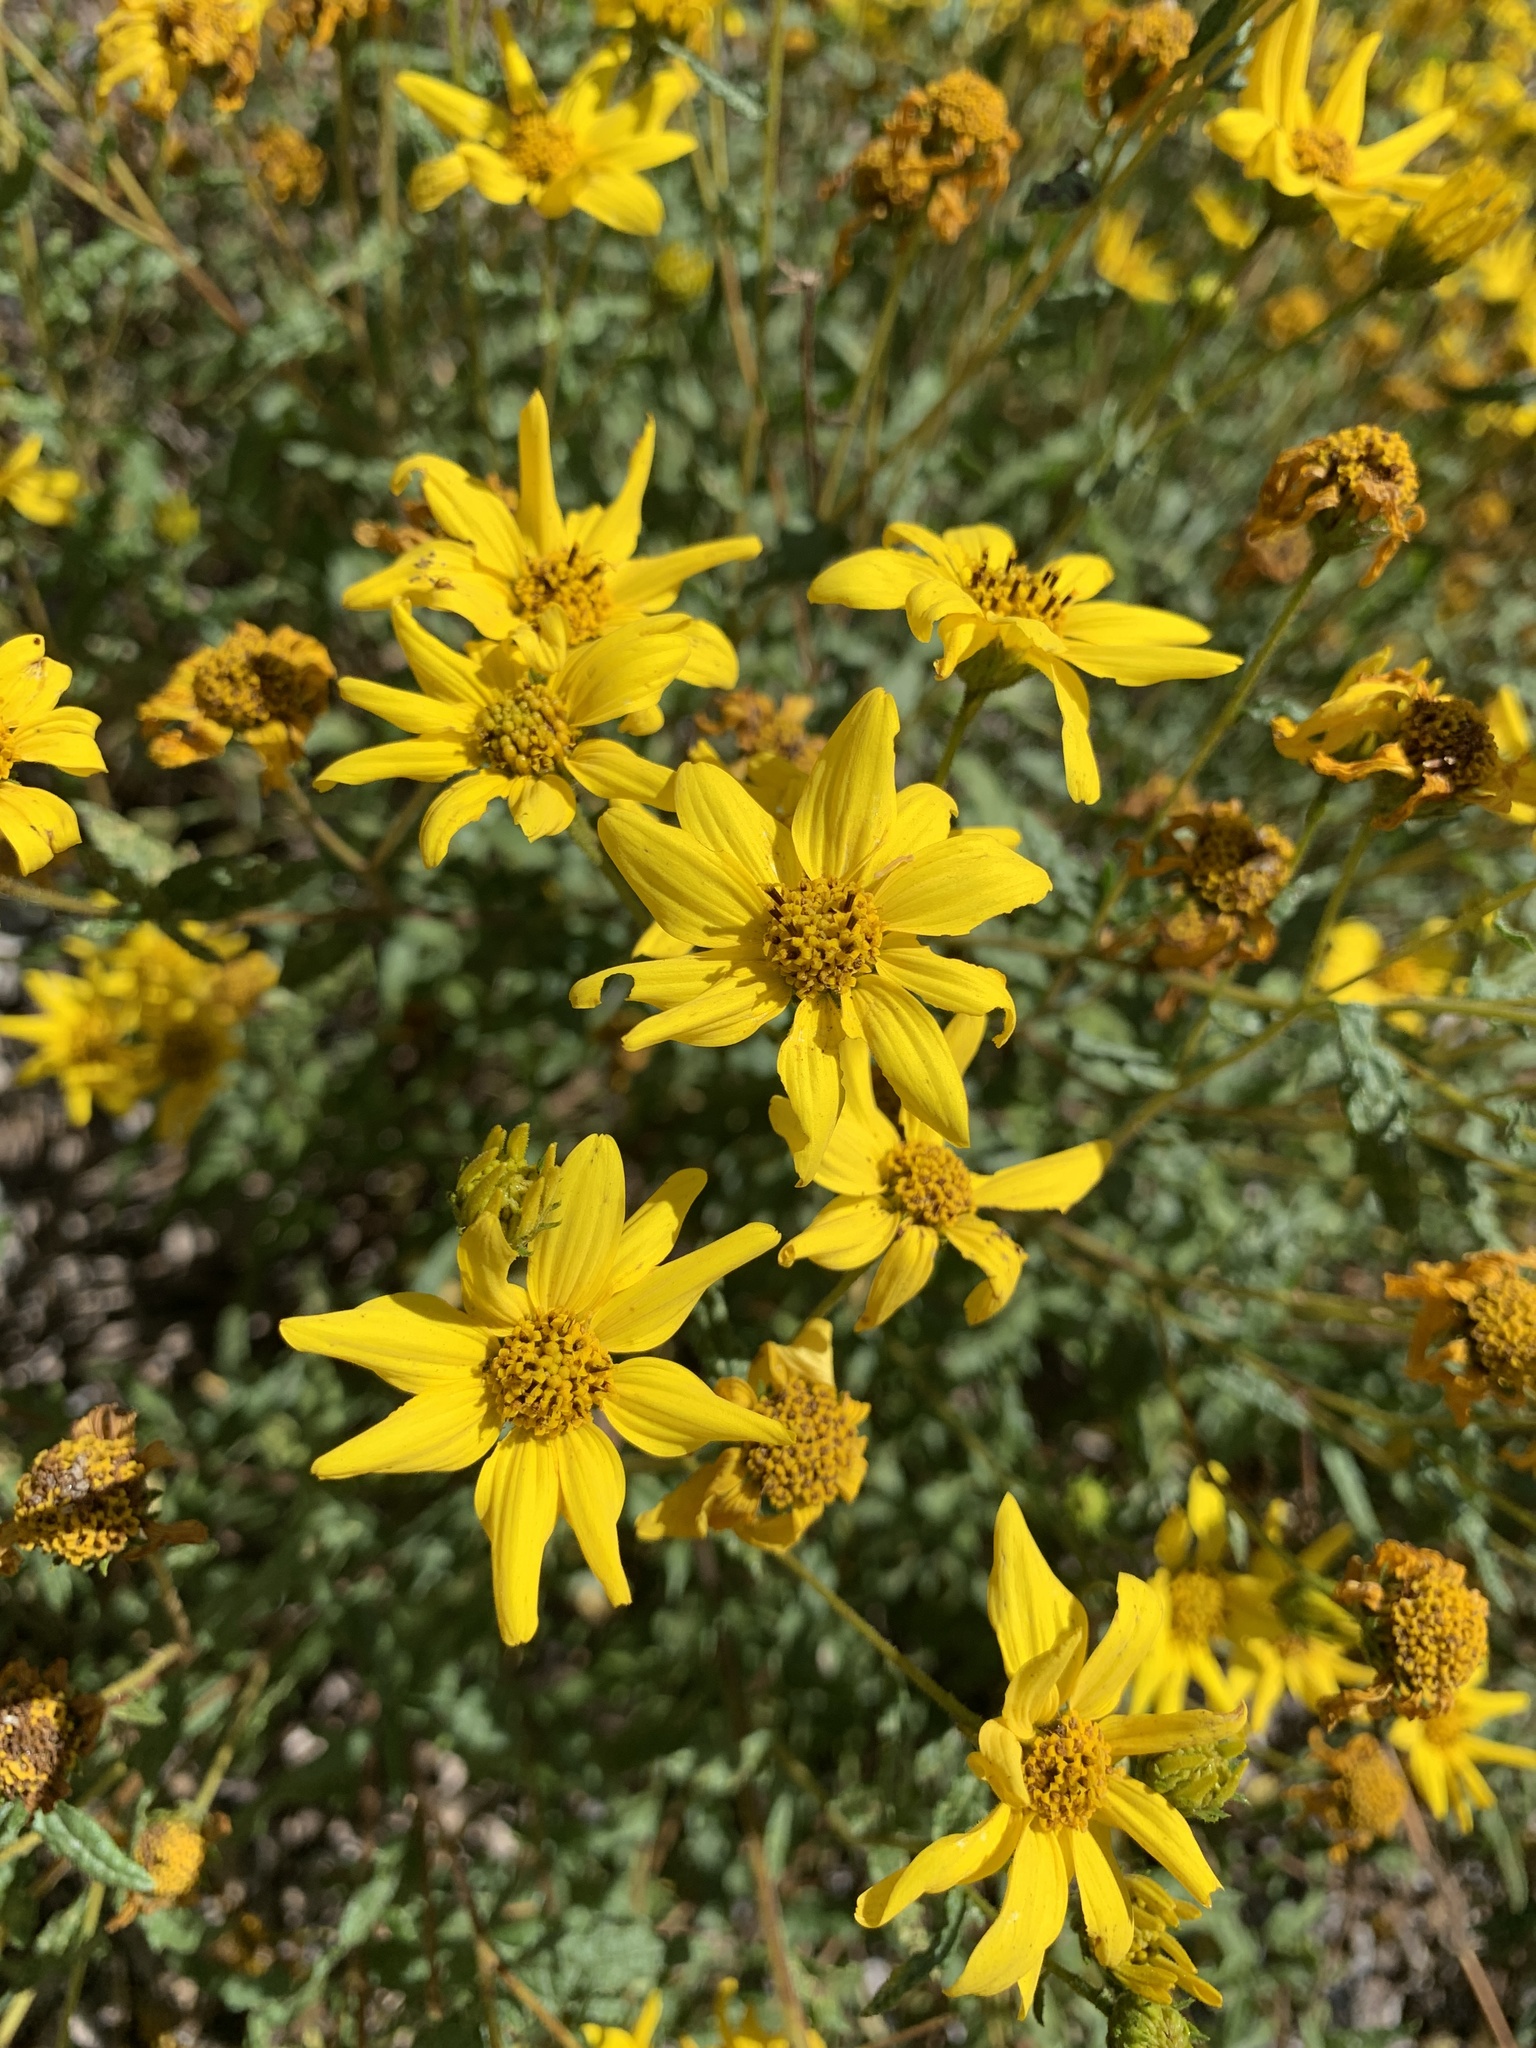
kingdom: Plantae
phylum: Tracheophyta
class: Magnoliopsida
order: Asterales
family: Asteraceae
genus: Bahiopsis
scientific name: Bahiopsis laciniata
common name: San diego county viguiera
